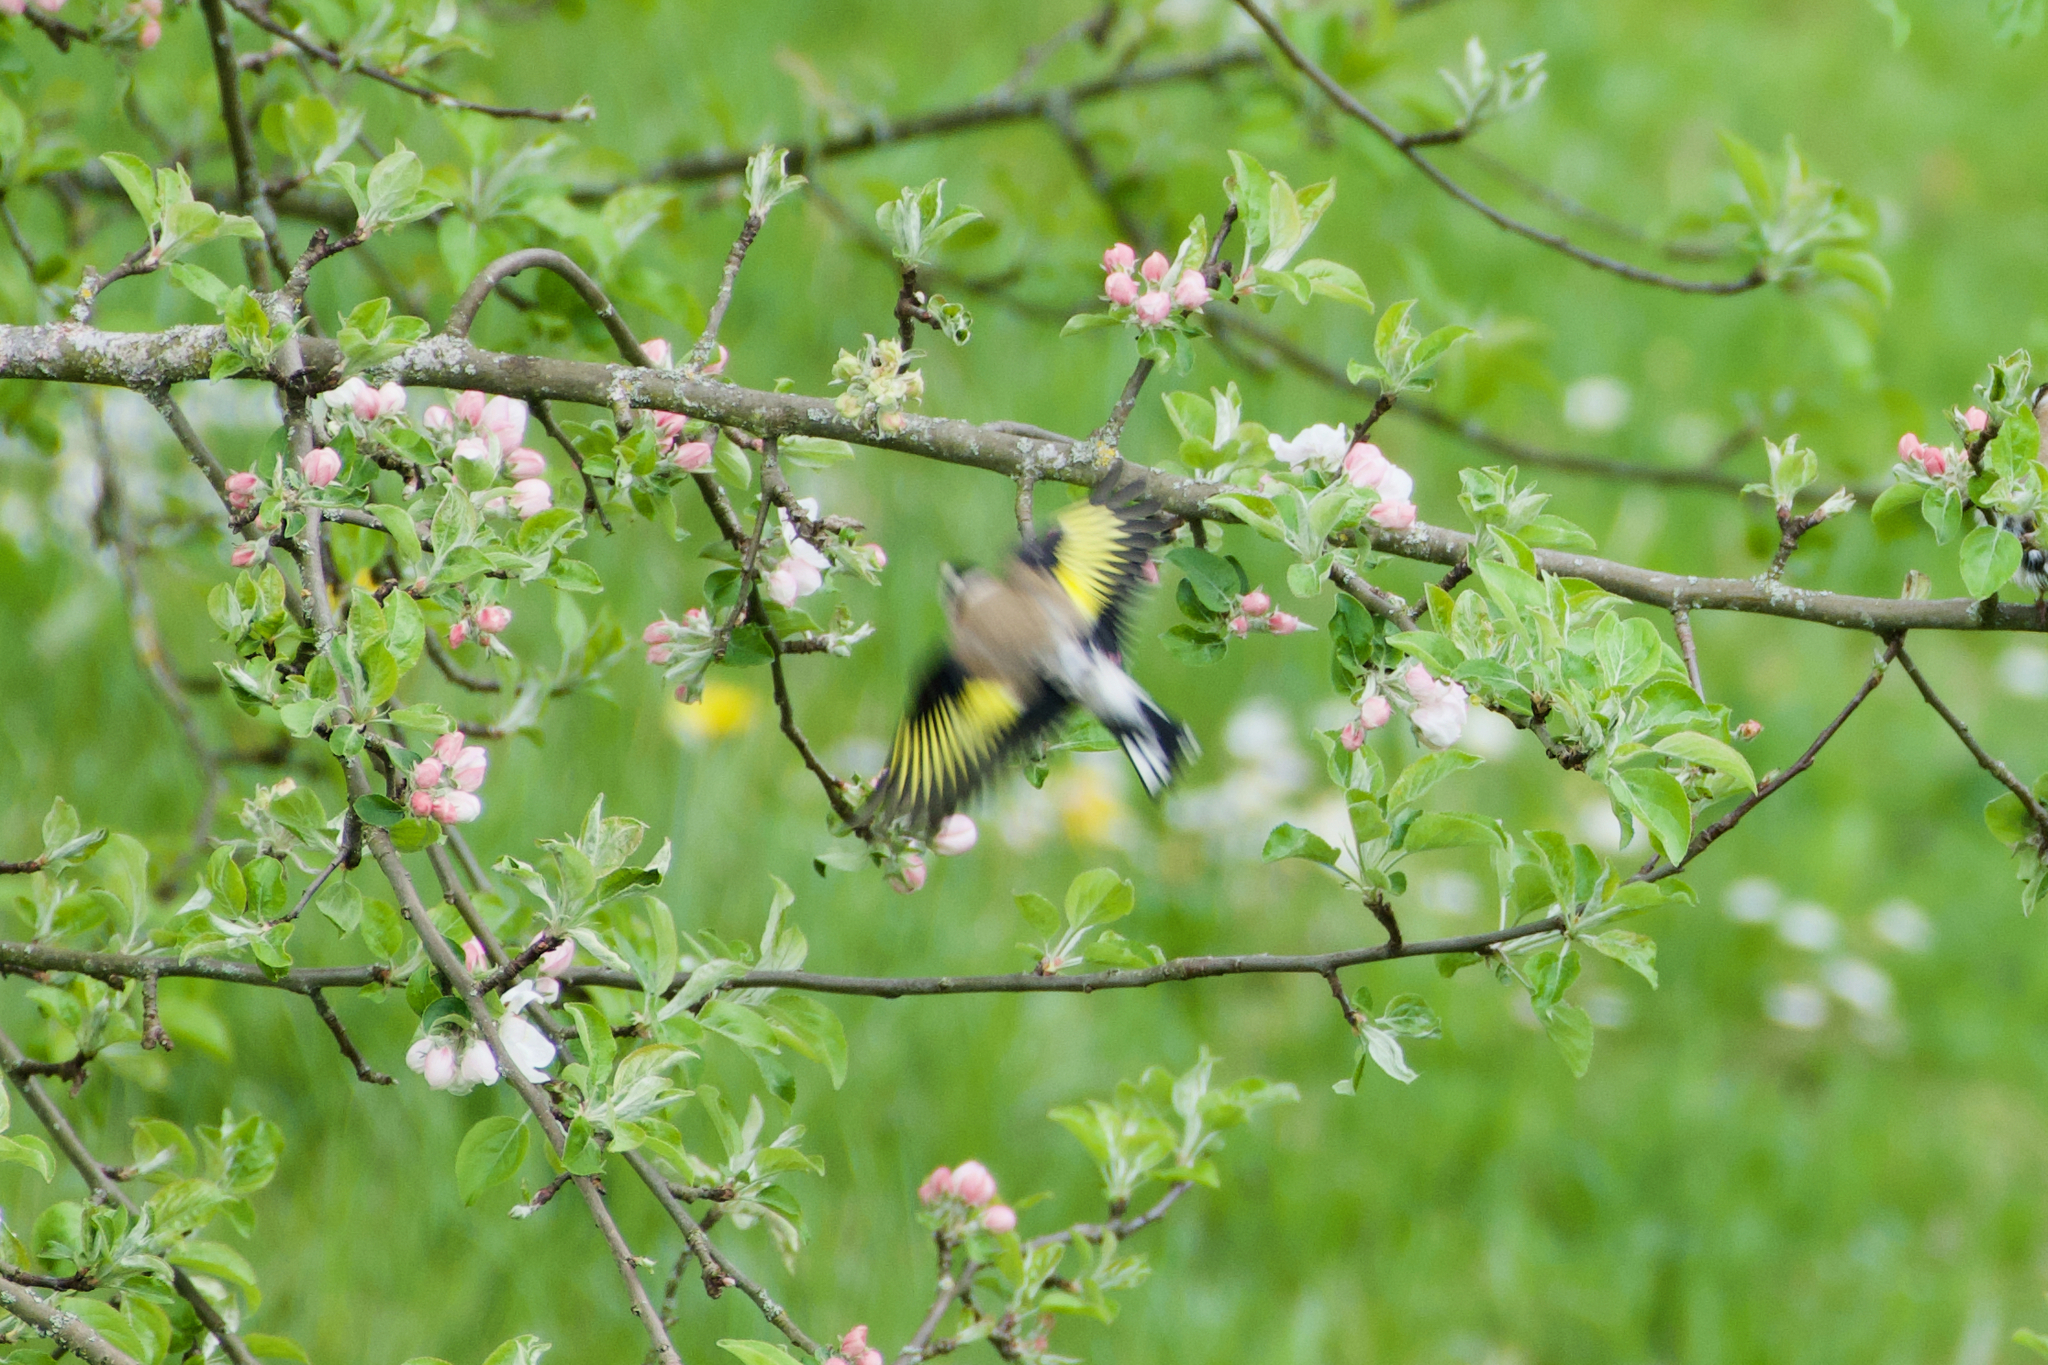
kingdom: Animalia
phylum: Chordata
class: Aves
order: Passeriformes
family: Fringillidae
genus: Carduelis
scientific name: Carduelis carduelis
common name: European goldfinch
